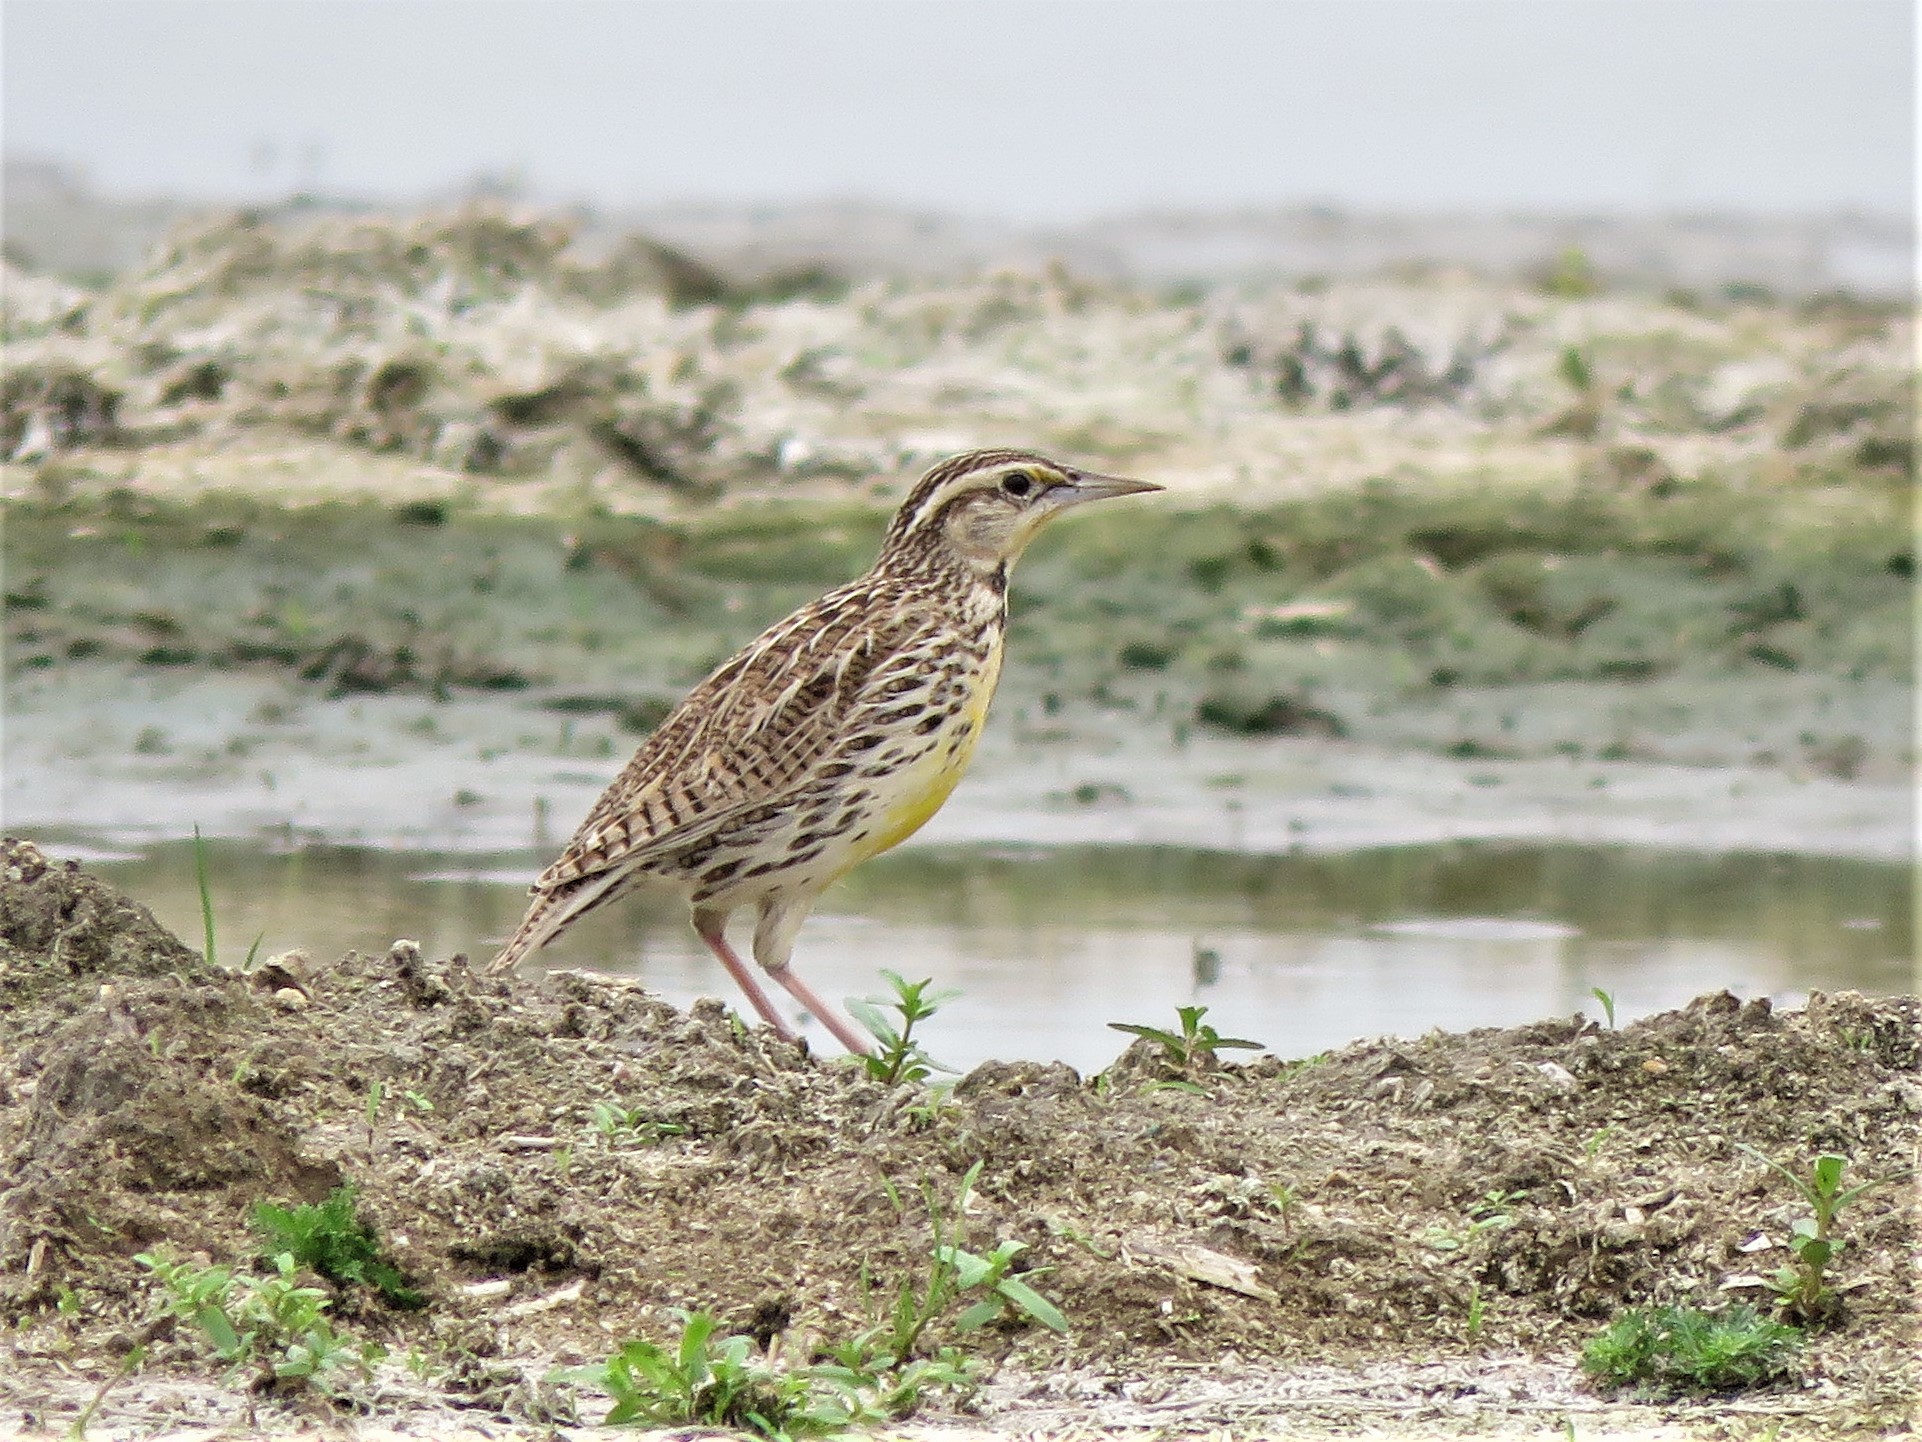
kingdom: Animalia
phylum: Chordata
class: Aves
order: Passeriformes
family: Icteridae
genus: Sturnella
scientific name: Sturnella magna
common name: Eastern meadowlark
